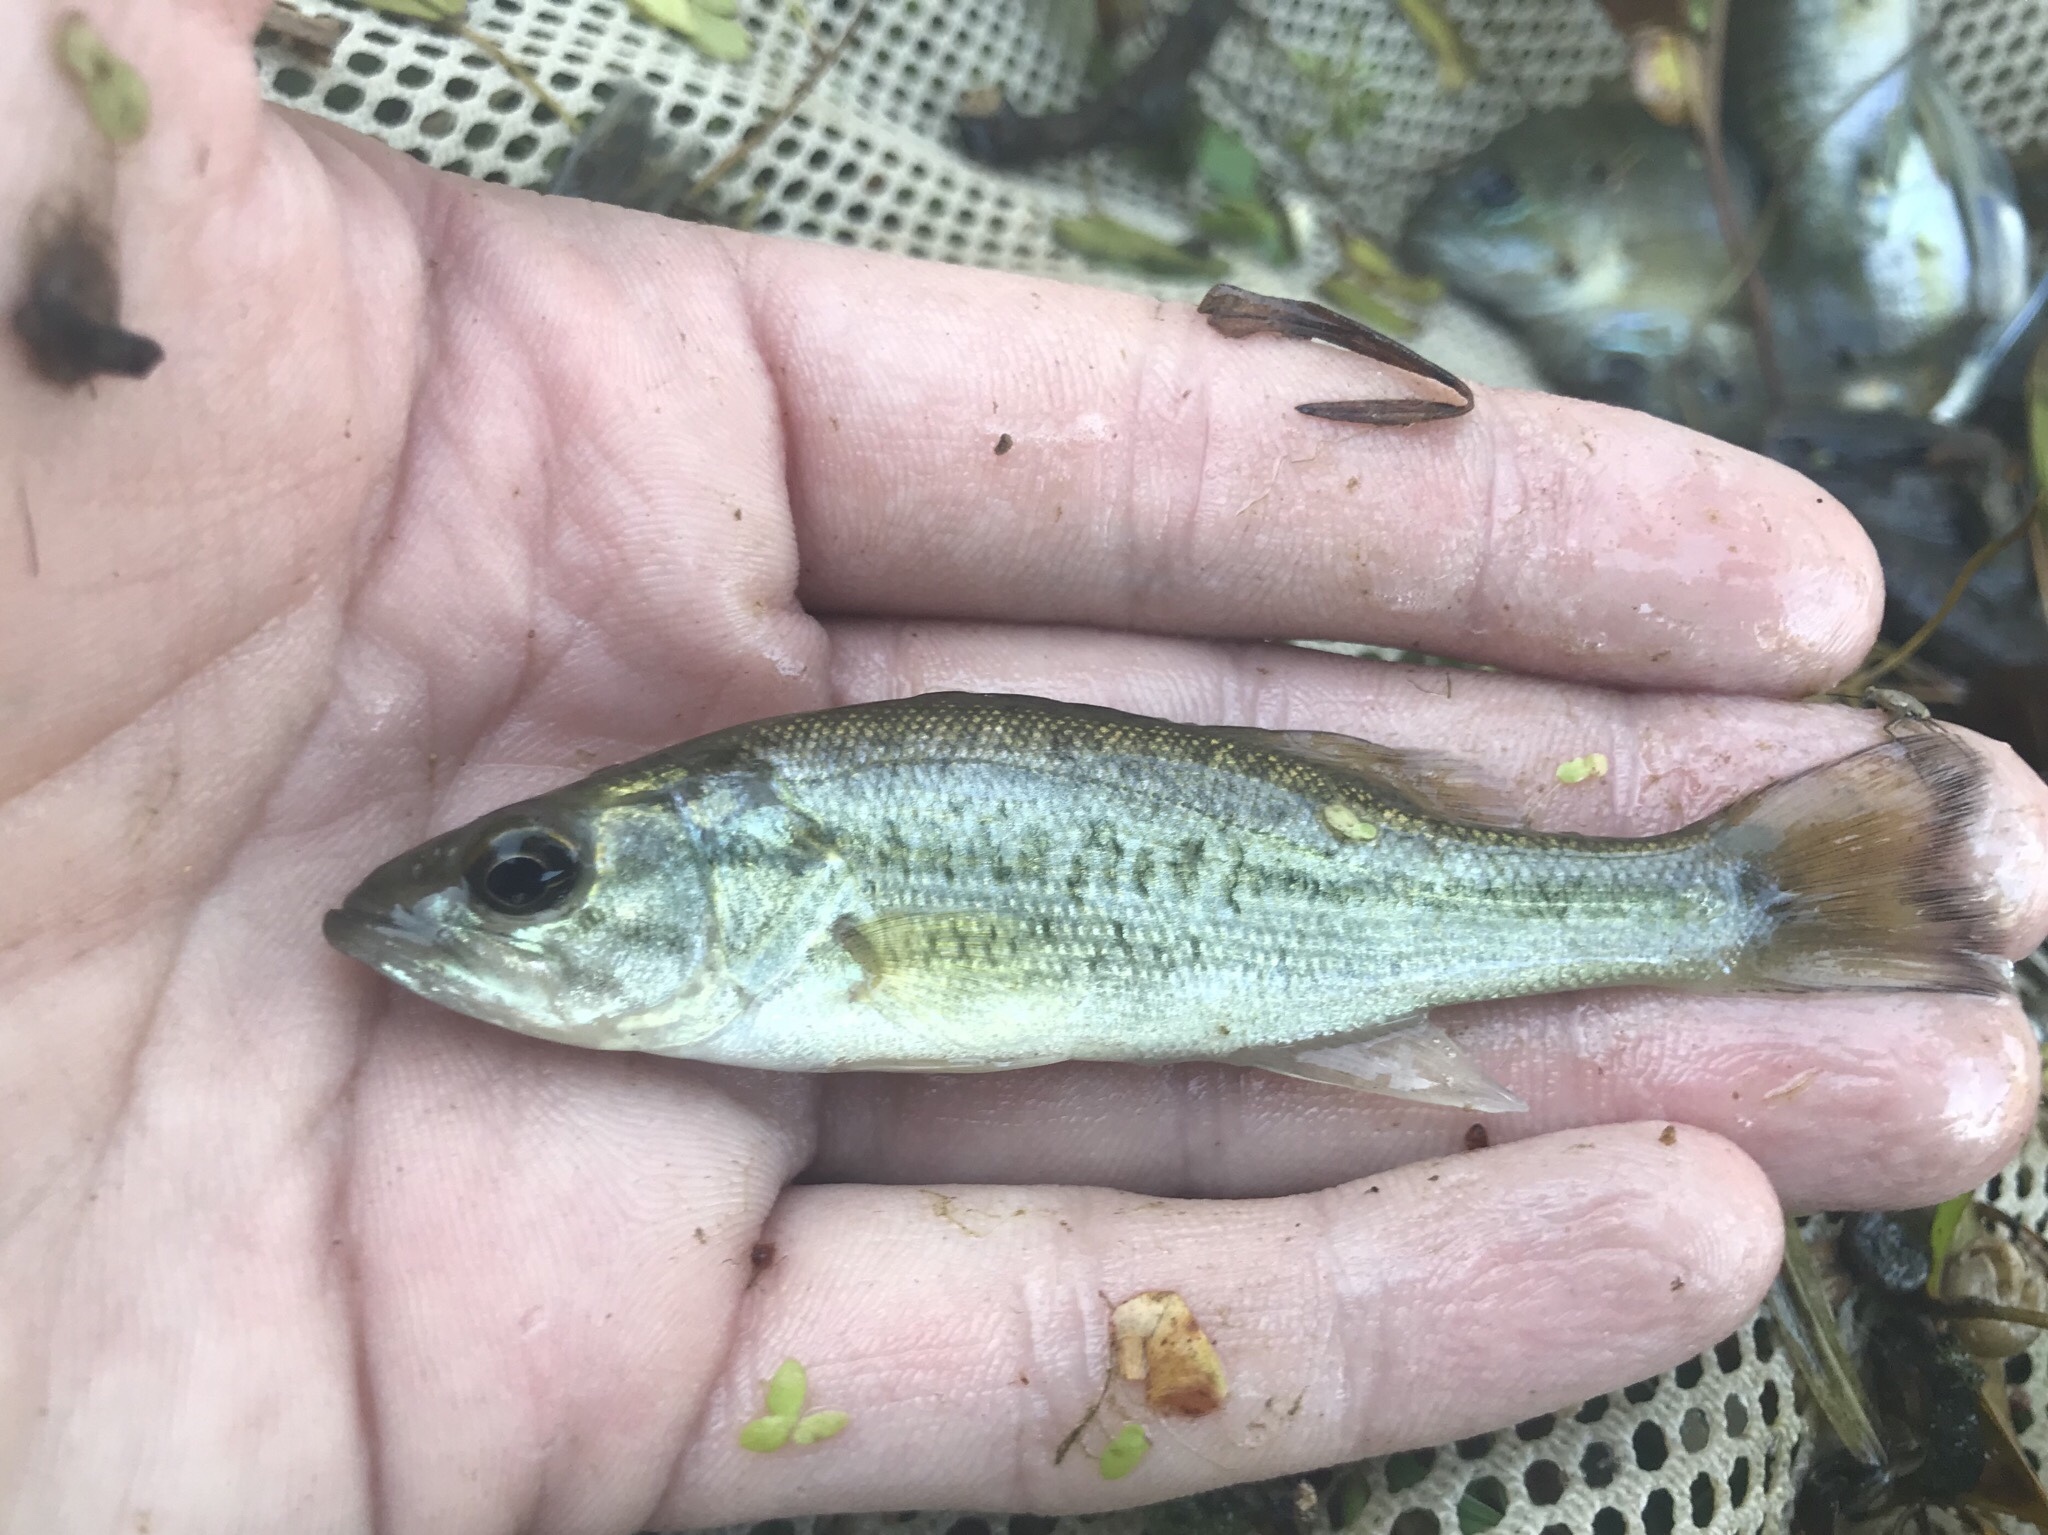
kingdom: Animalia
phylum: Chordata
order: Perciformes
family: Centrarchidae
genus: Micropterus
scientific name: Micropterus
